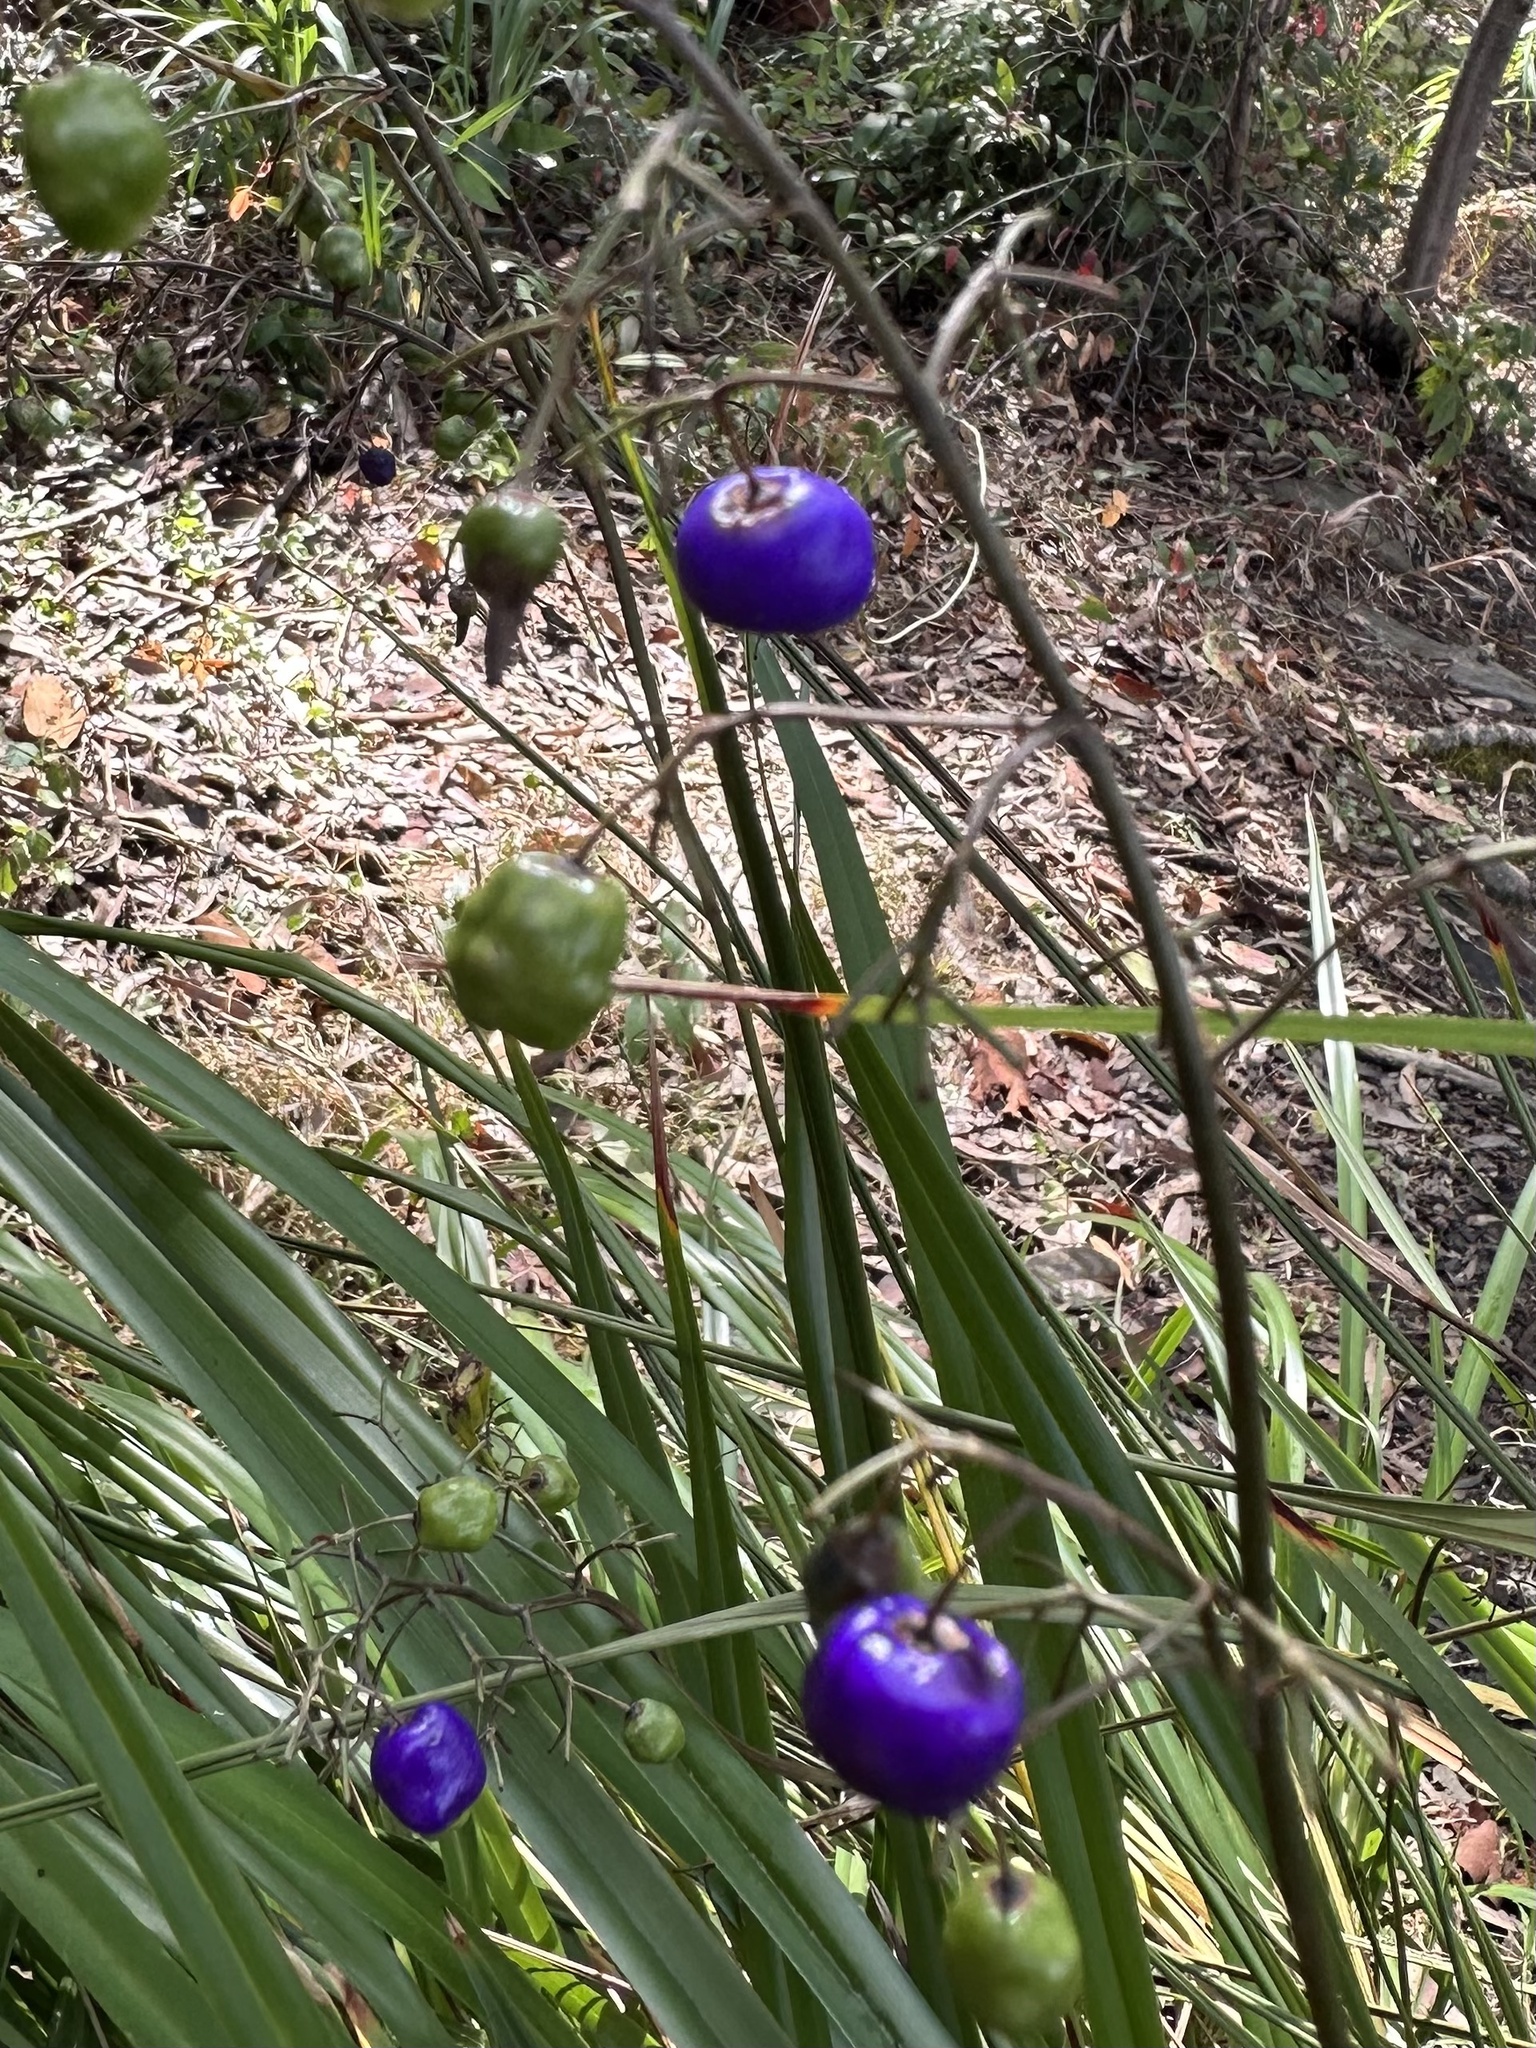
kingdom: Plantae
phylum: Tracheophyta
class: Liliopsida
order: Asparagales
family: Asphodelaceae
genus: Dianella
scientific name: Dianella caerulea
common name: Blue flax-lily
